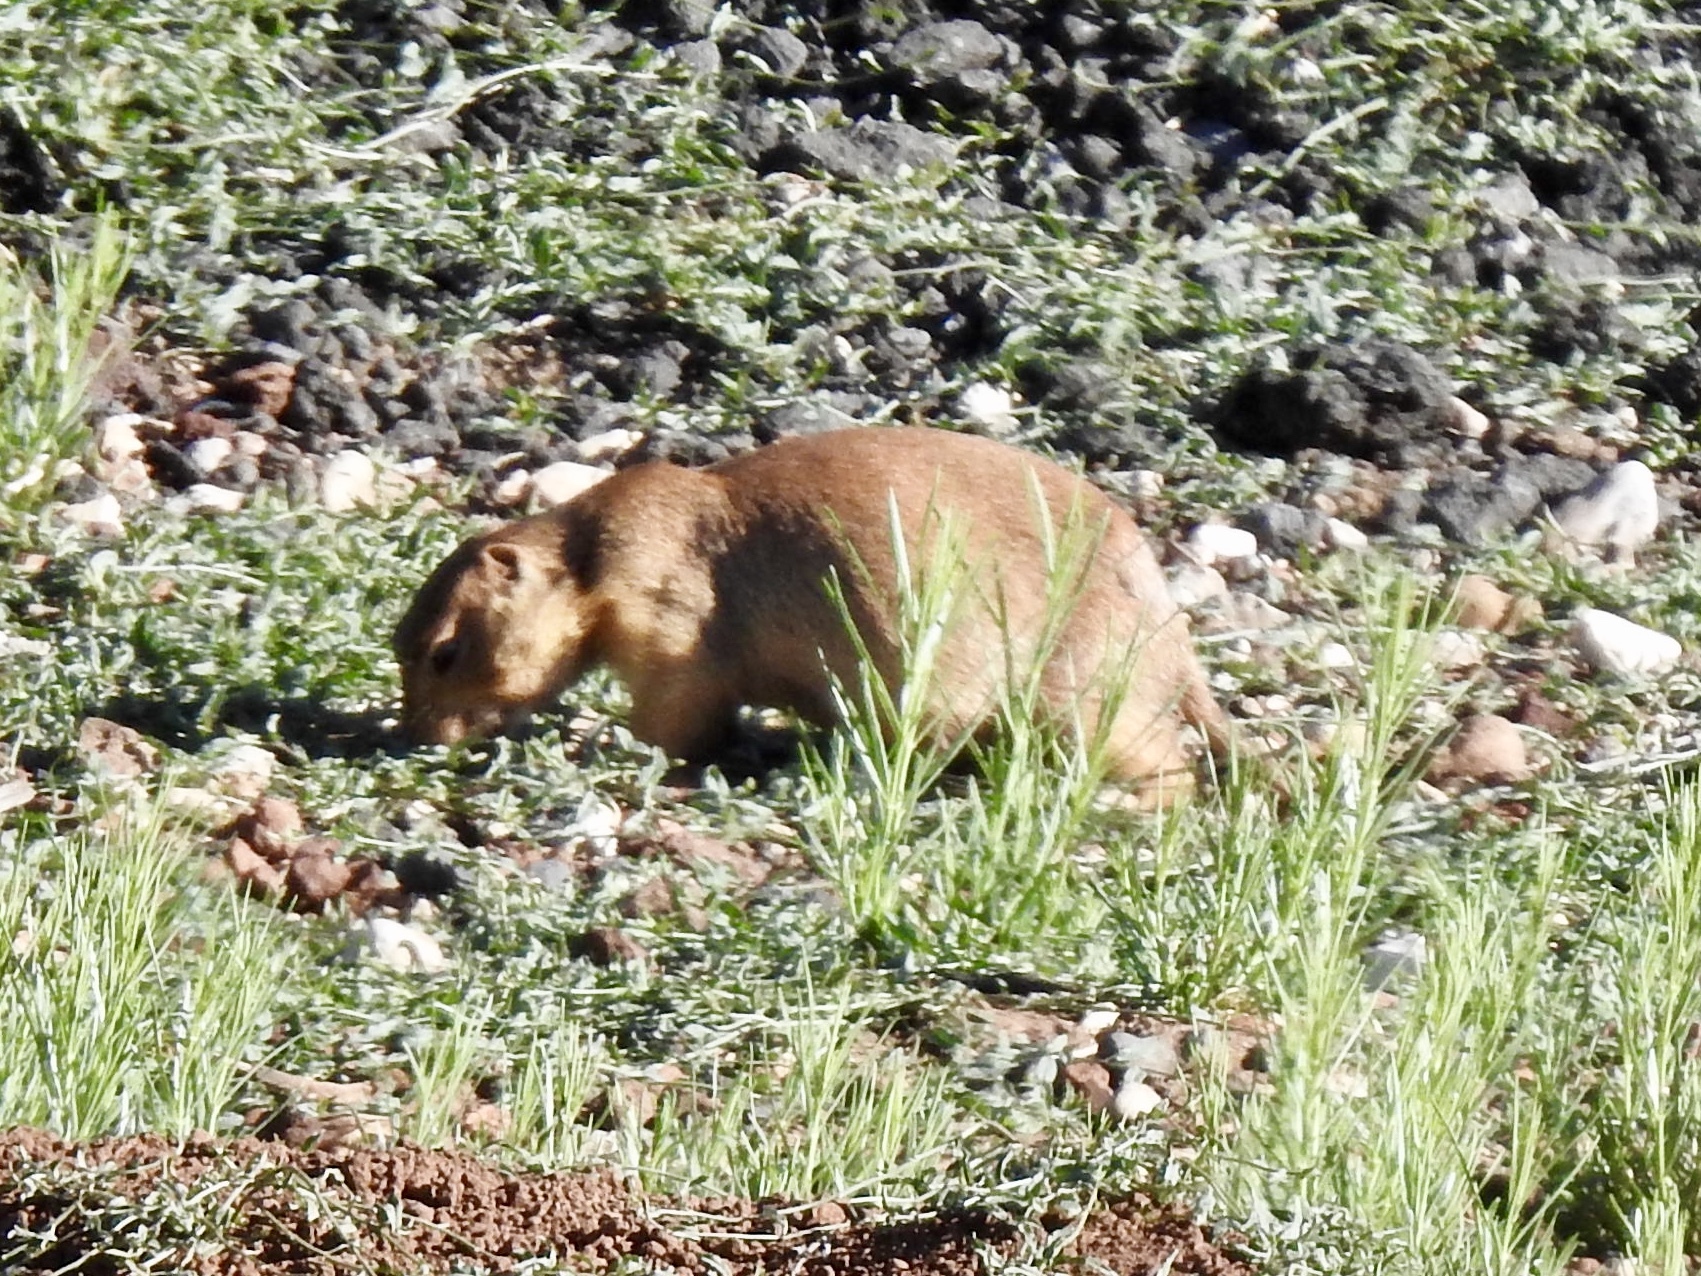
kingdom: Animalia
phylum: Chordata
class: Mammalia
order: Rodentia
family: Sciuridae
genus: Cynomys
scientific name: Cynomys gunnisoni
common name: Gunnison's prairie dog
